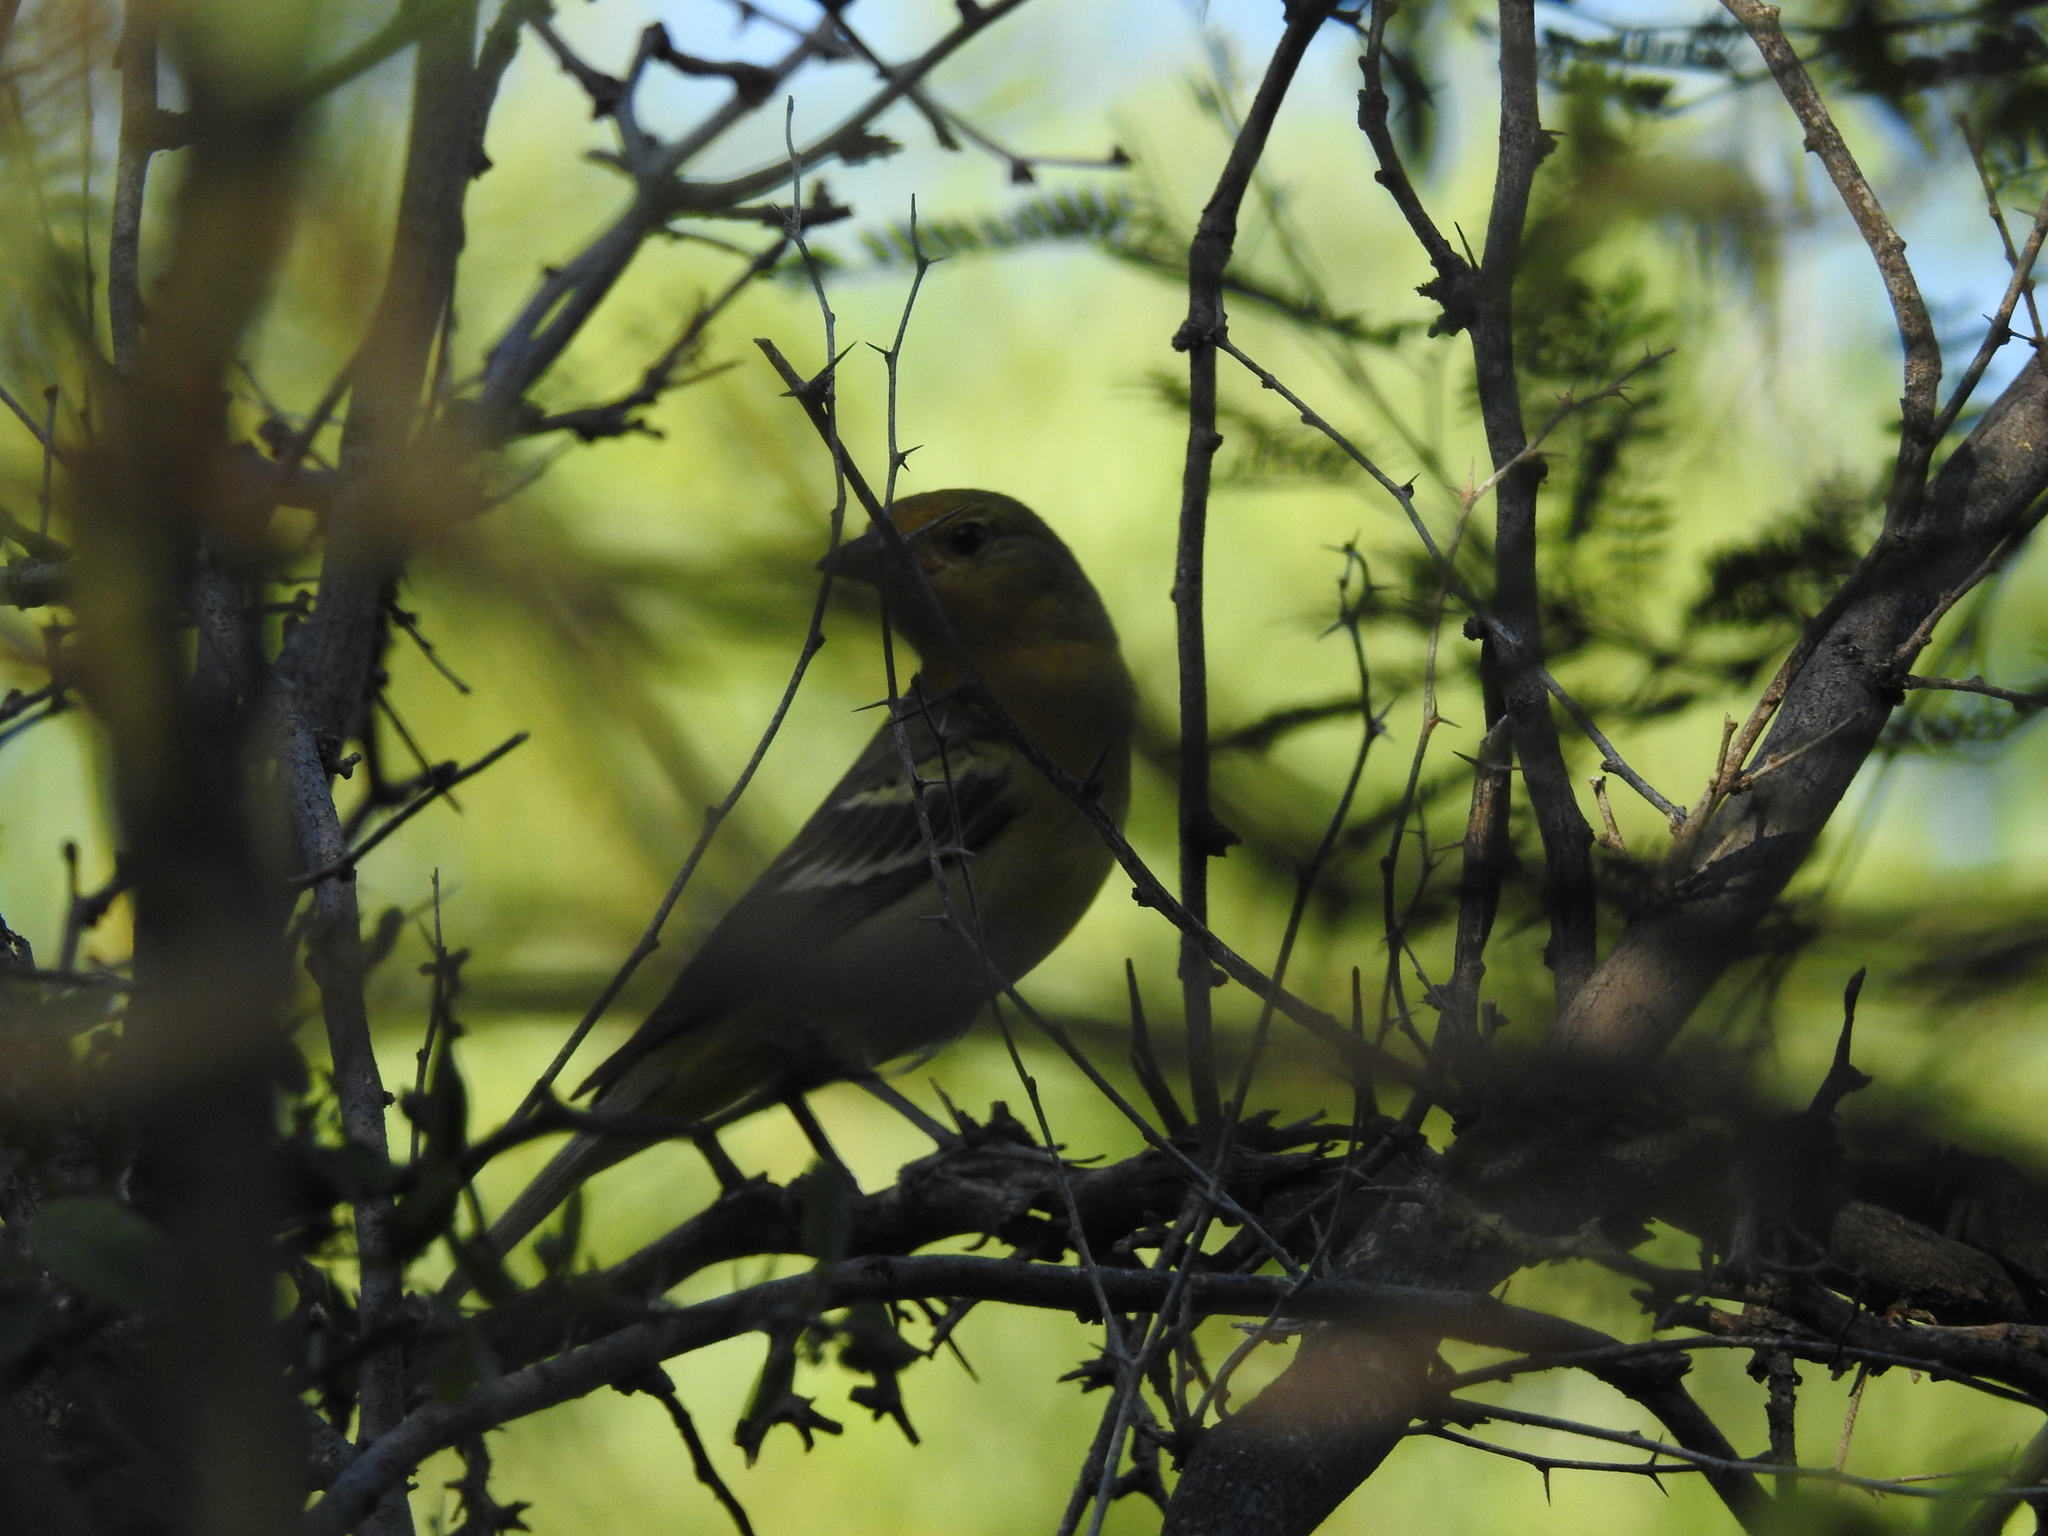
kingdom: Animalia
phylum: Chordata
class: Aves
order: Passeriformes
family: Cardinalidae
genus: Piranga
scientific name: Piranga ludoviciana
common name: Western tanager
